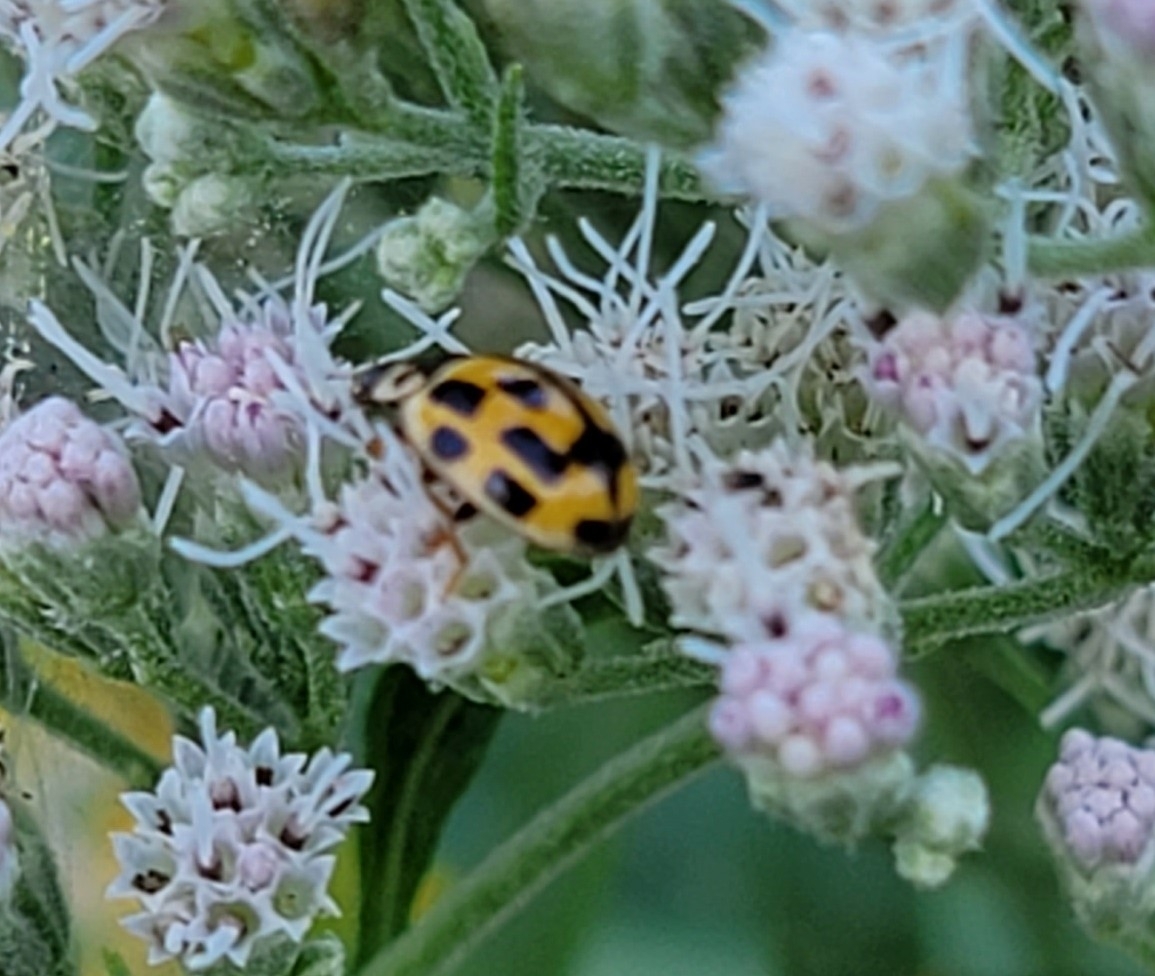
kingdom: Animalia
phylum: Arthropoda
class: Insecta
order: Coleoptera
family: Coccinellidae
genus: Propylaea
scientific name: Propylaea quatuordecimpunctata
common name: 14-spotted ladybird beetle
